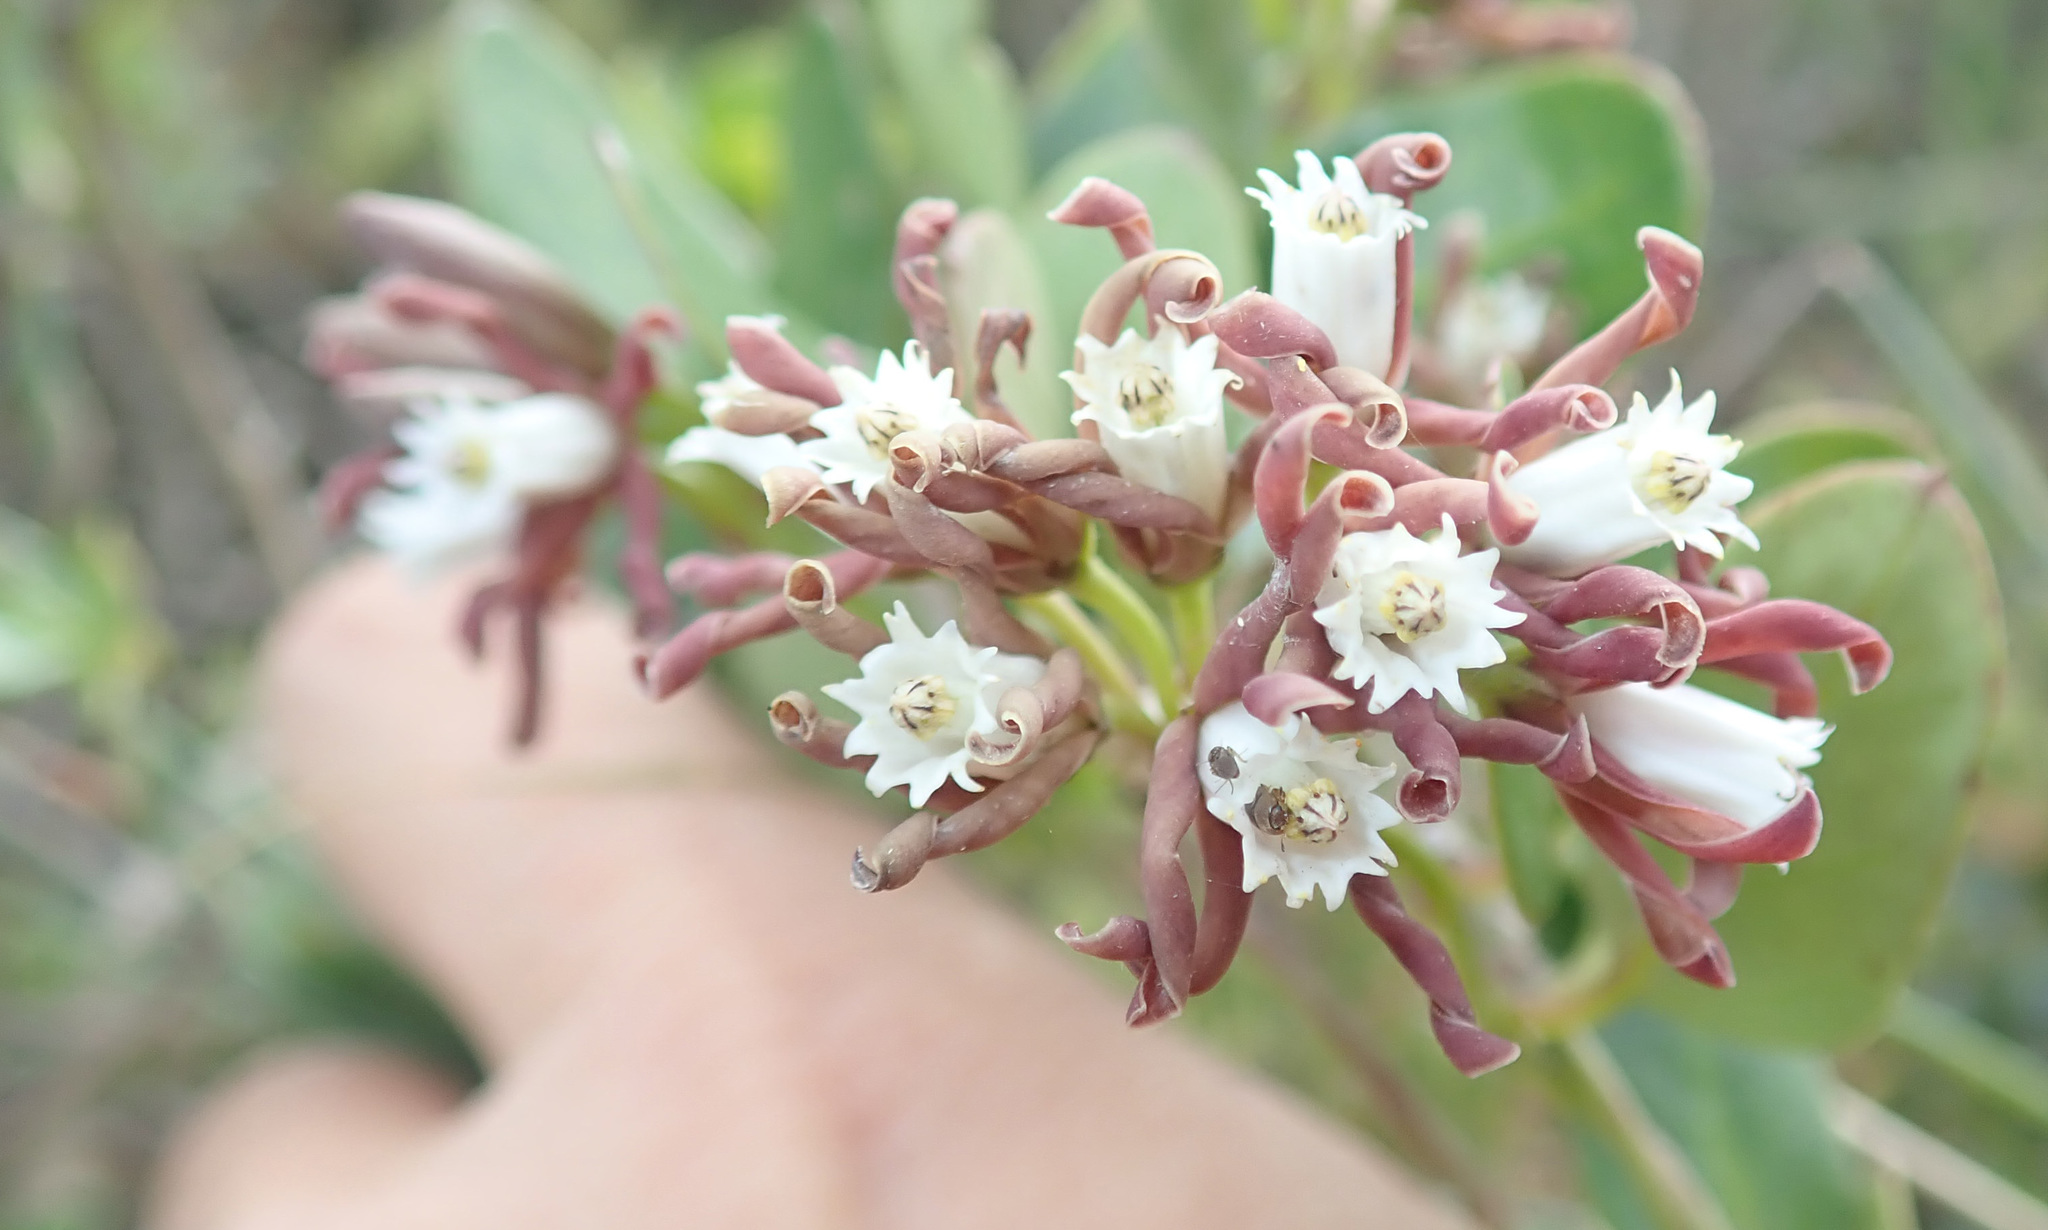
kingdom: Plantae
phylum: Tracheophyta
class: Magnoliopsida
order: Gentianales
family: Apocynaceae
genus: Cynanchum
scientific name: Cynanchum africanum
